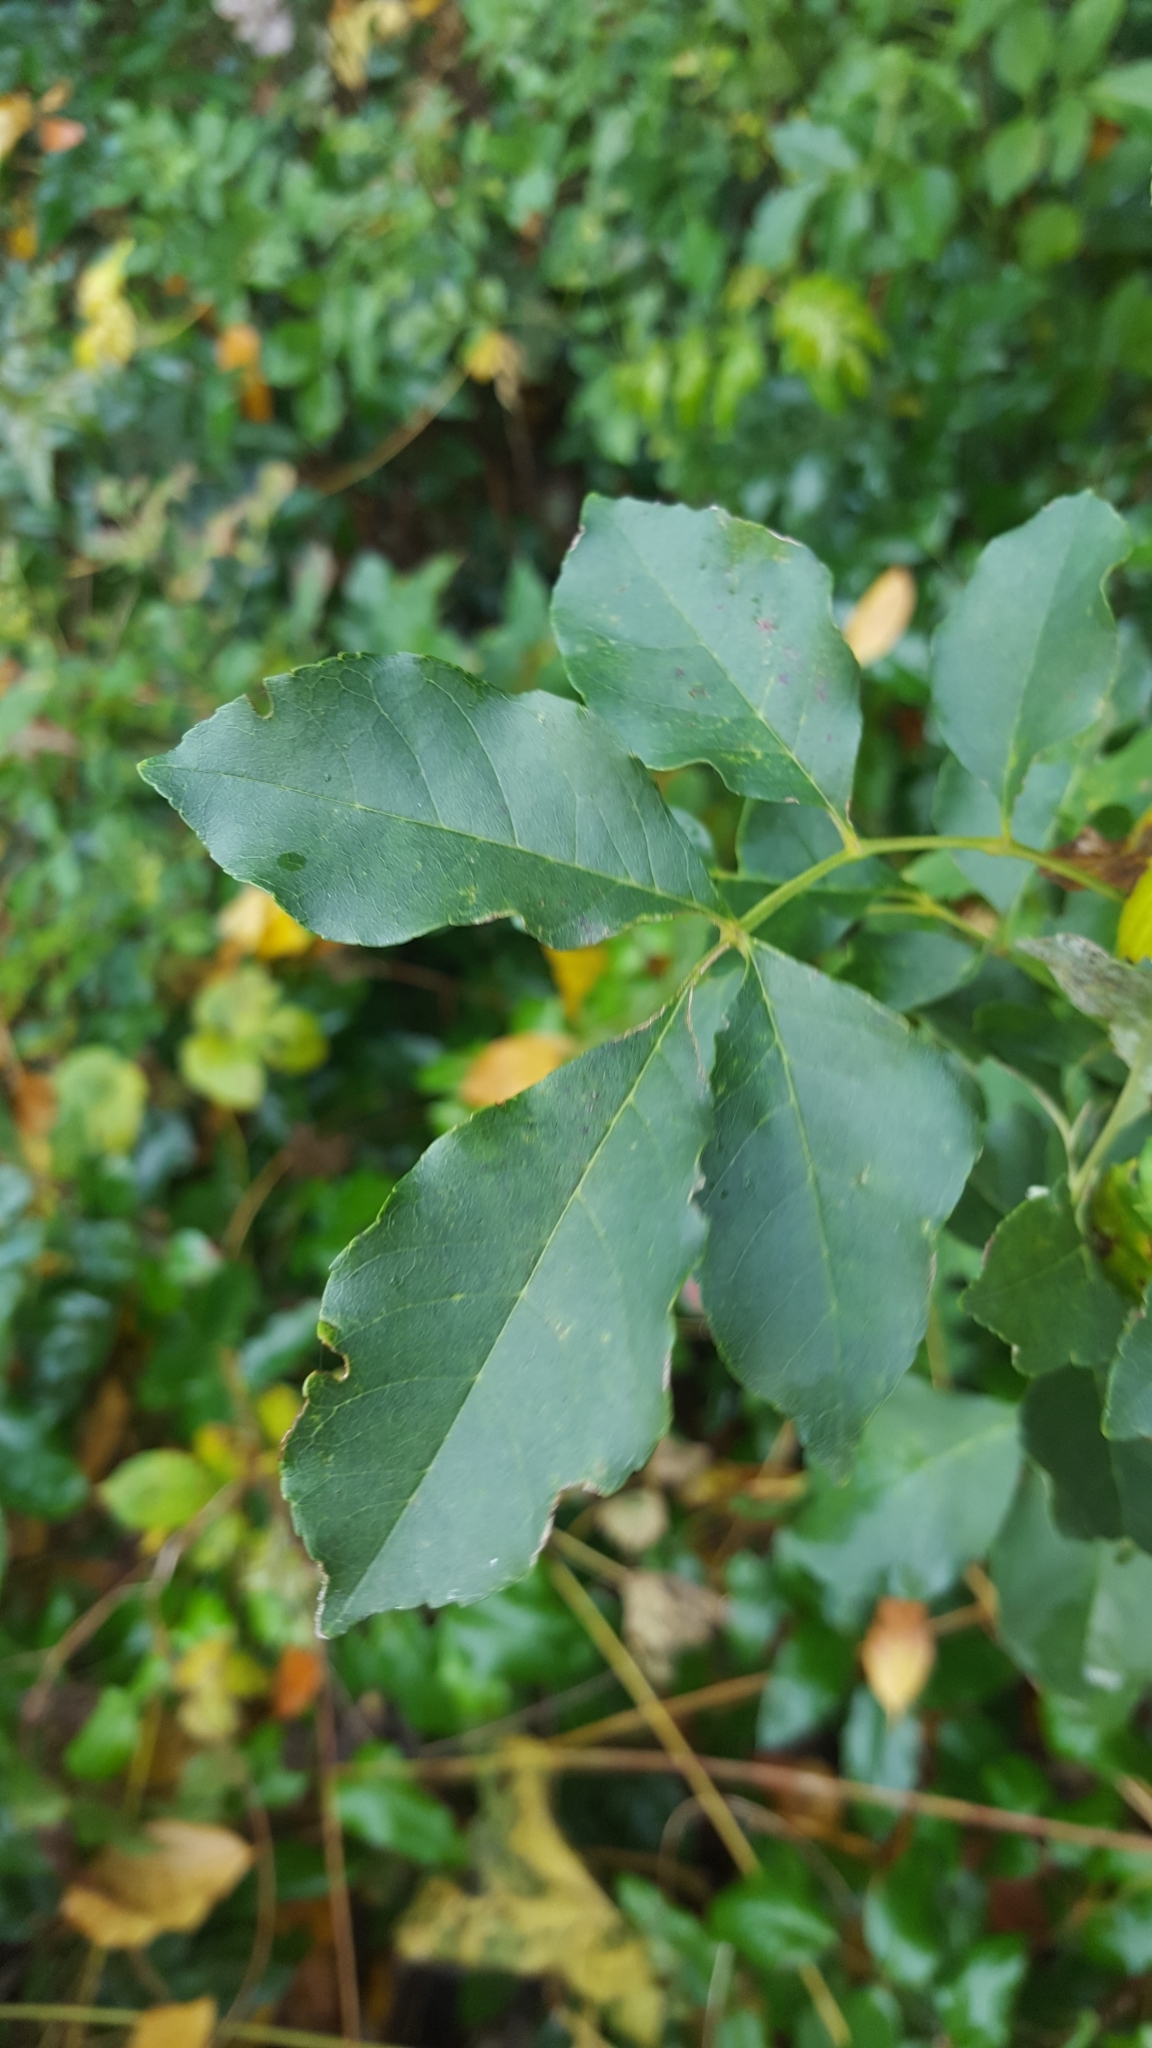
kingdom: Plantae
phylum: Tracheophyta
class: Magnoliopsida
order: Lamiales
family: Oleaceae
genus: Fraxinus
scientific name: Fraxinus excelsior
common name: European ash
